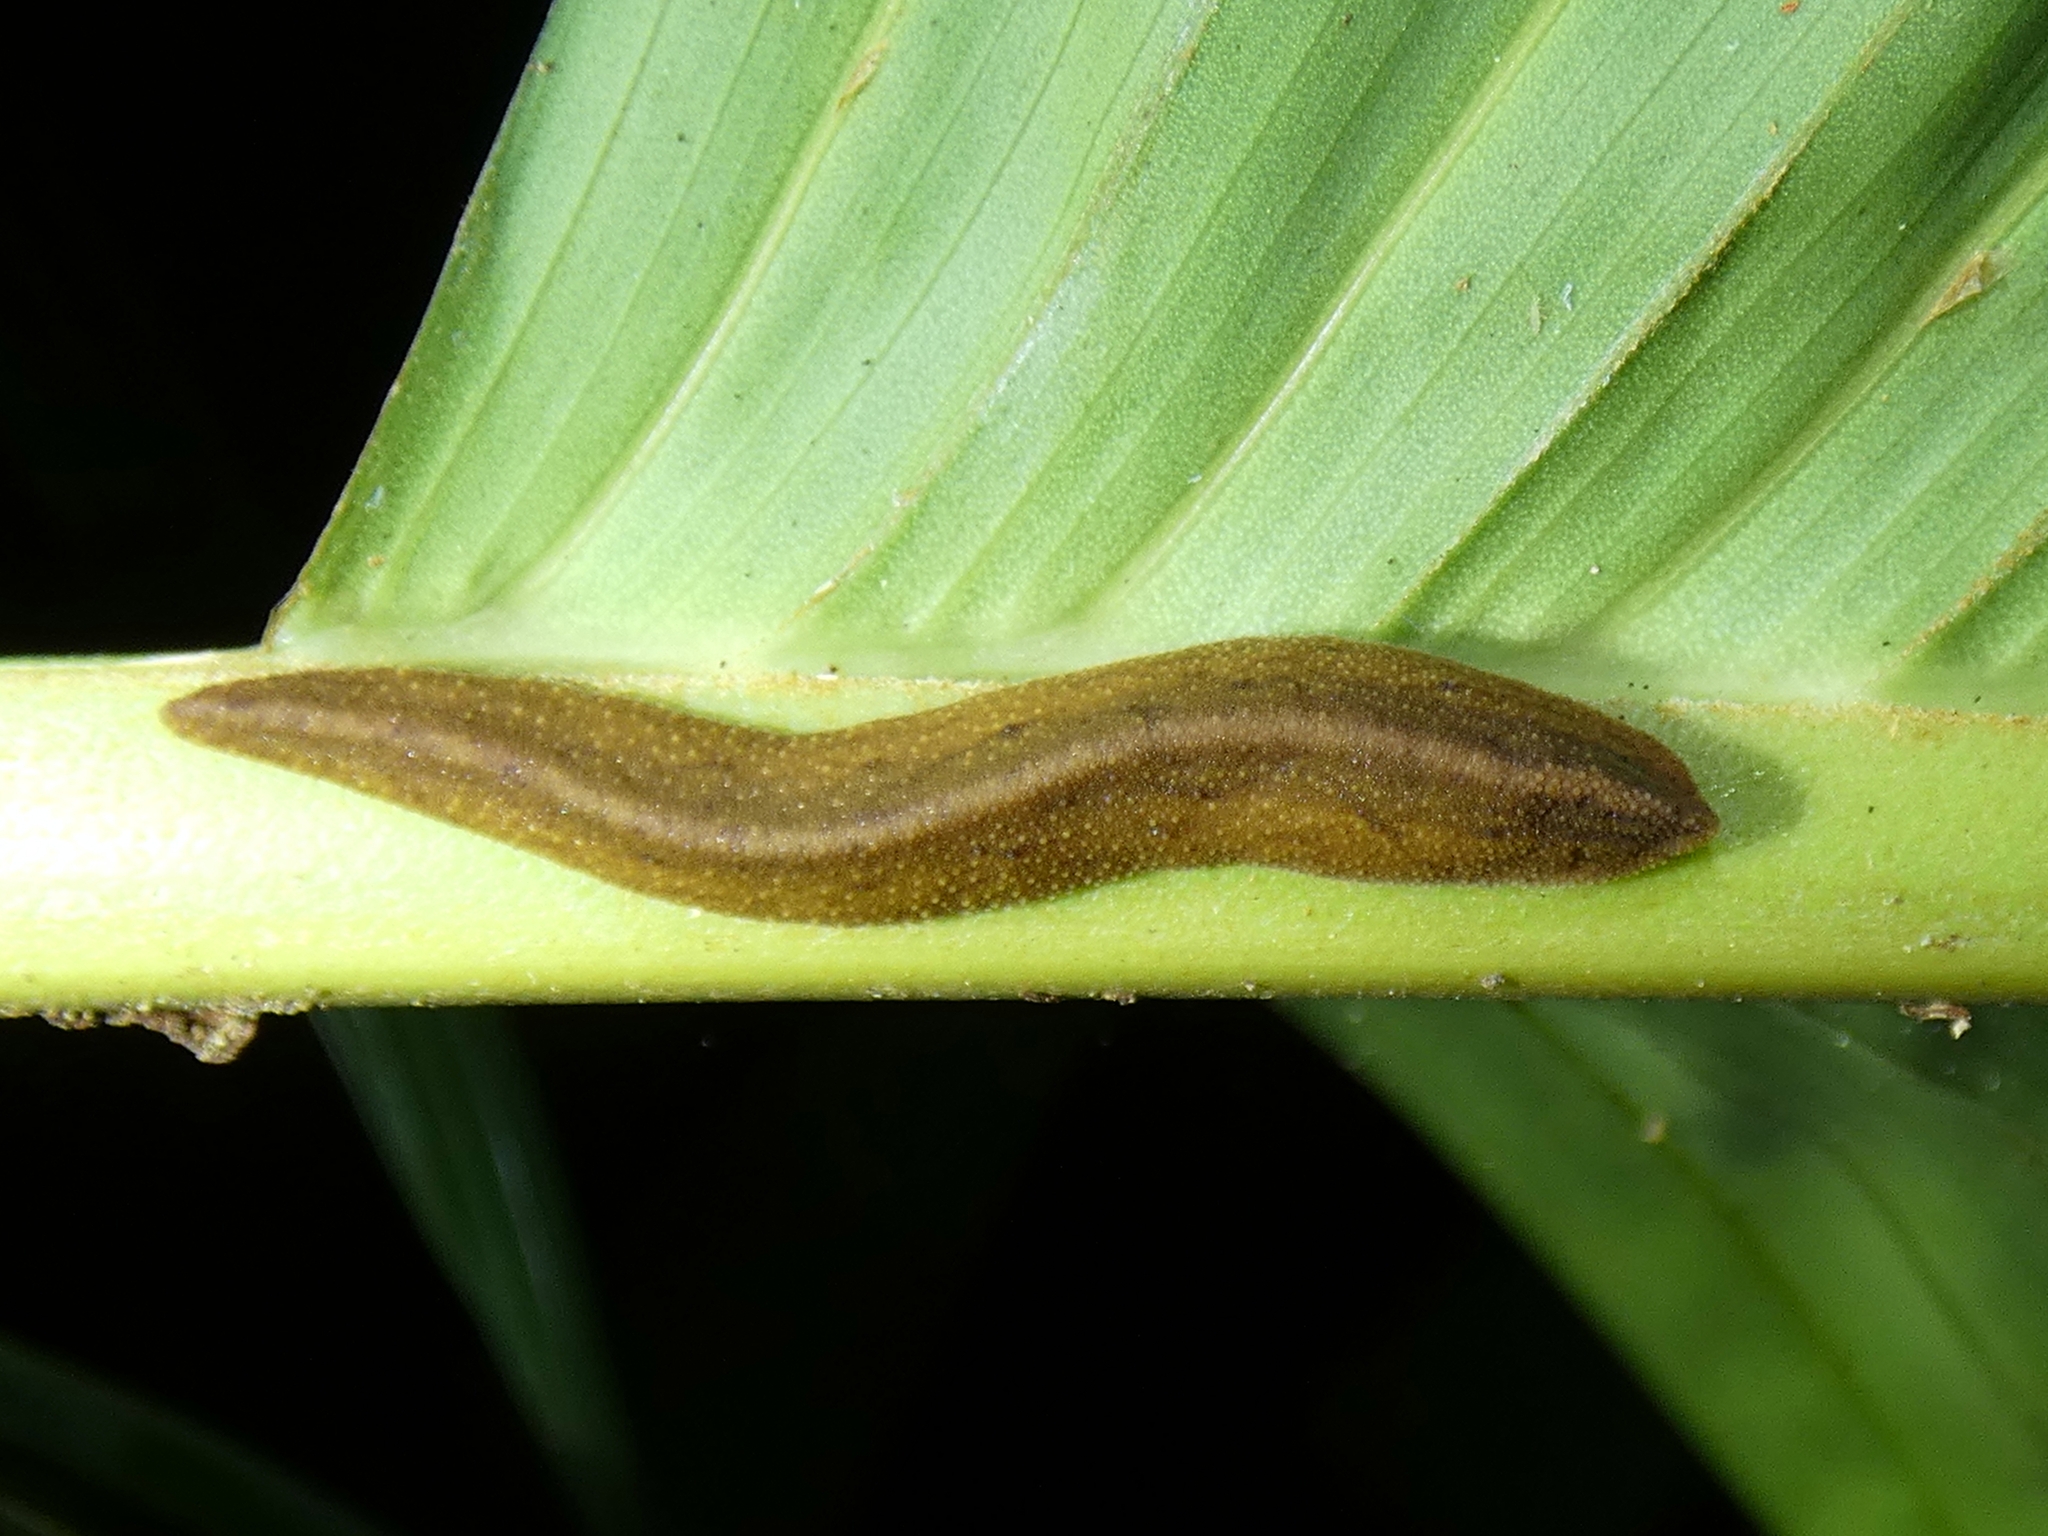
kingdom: Animalia
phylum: Mollusca
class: Gastropoda
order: Systellommatophora
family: Rathouisiidae
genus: Atopos
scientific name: Atopos australis
